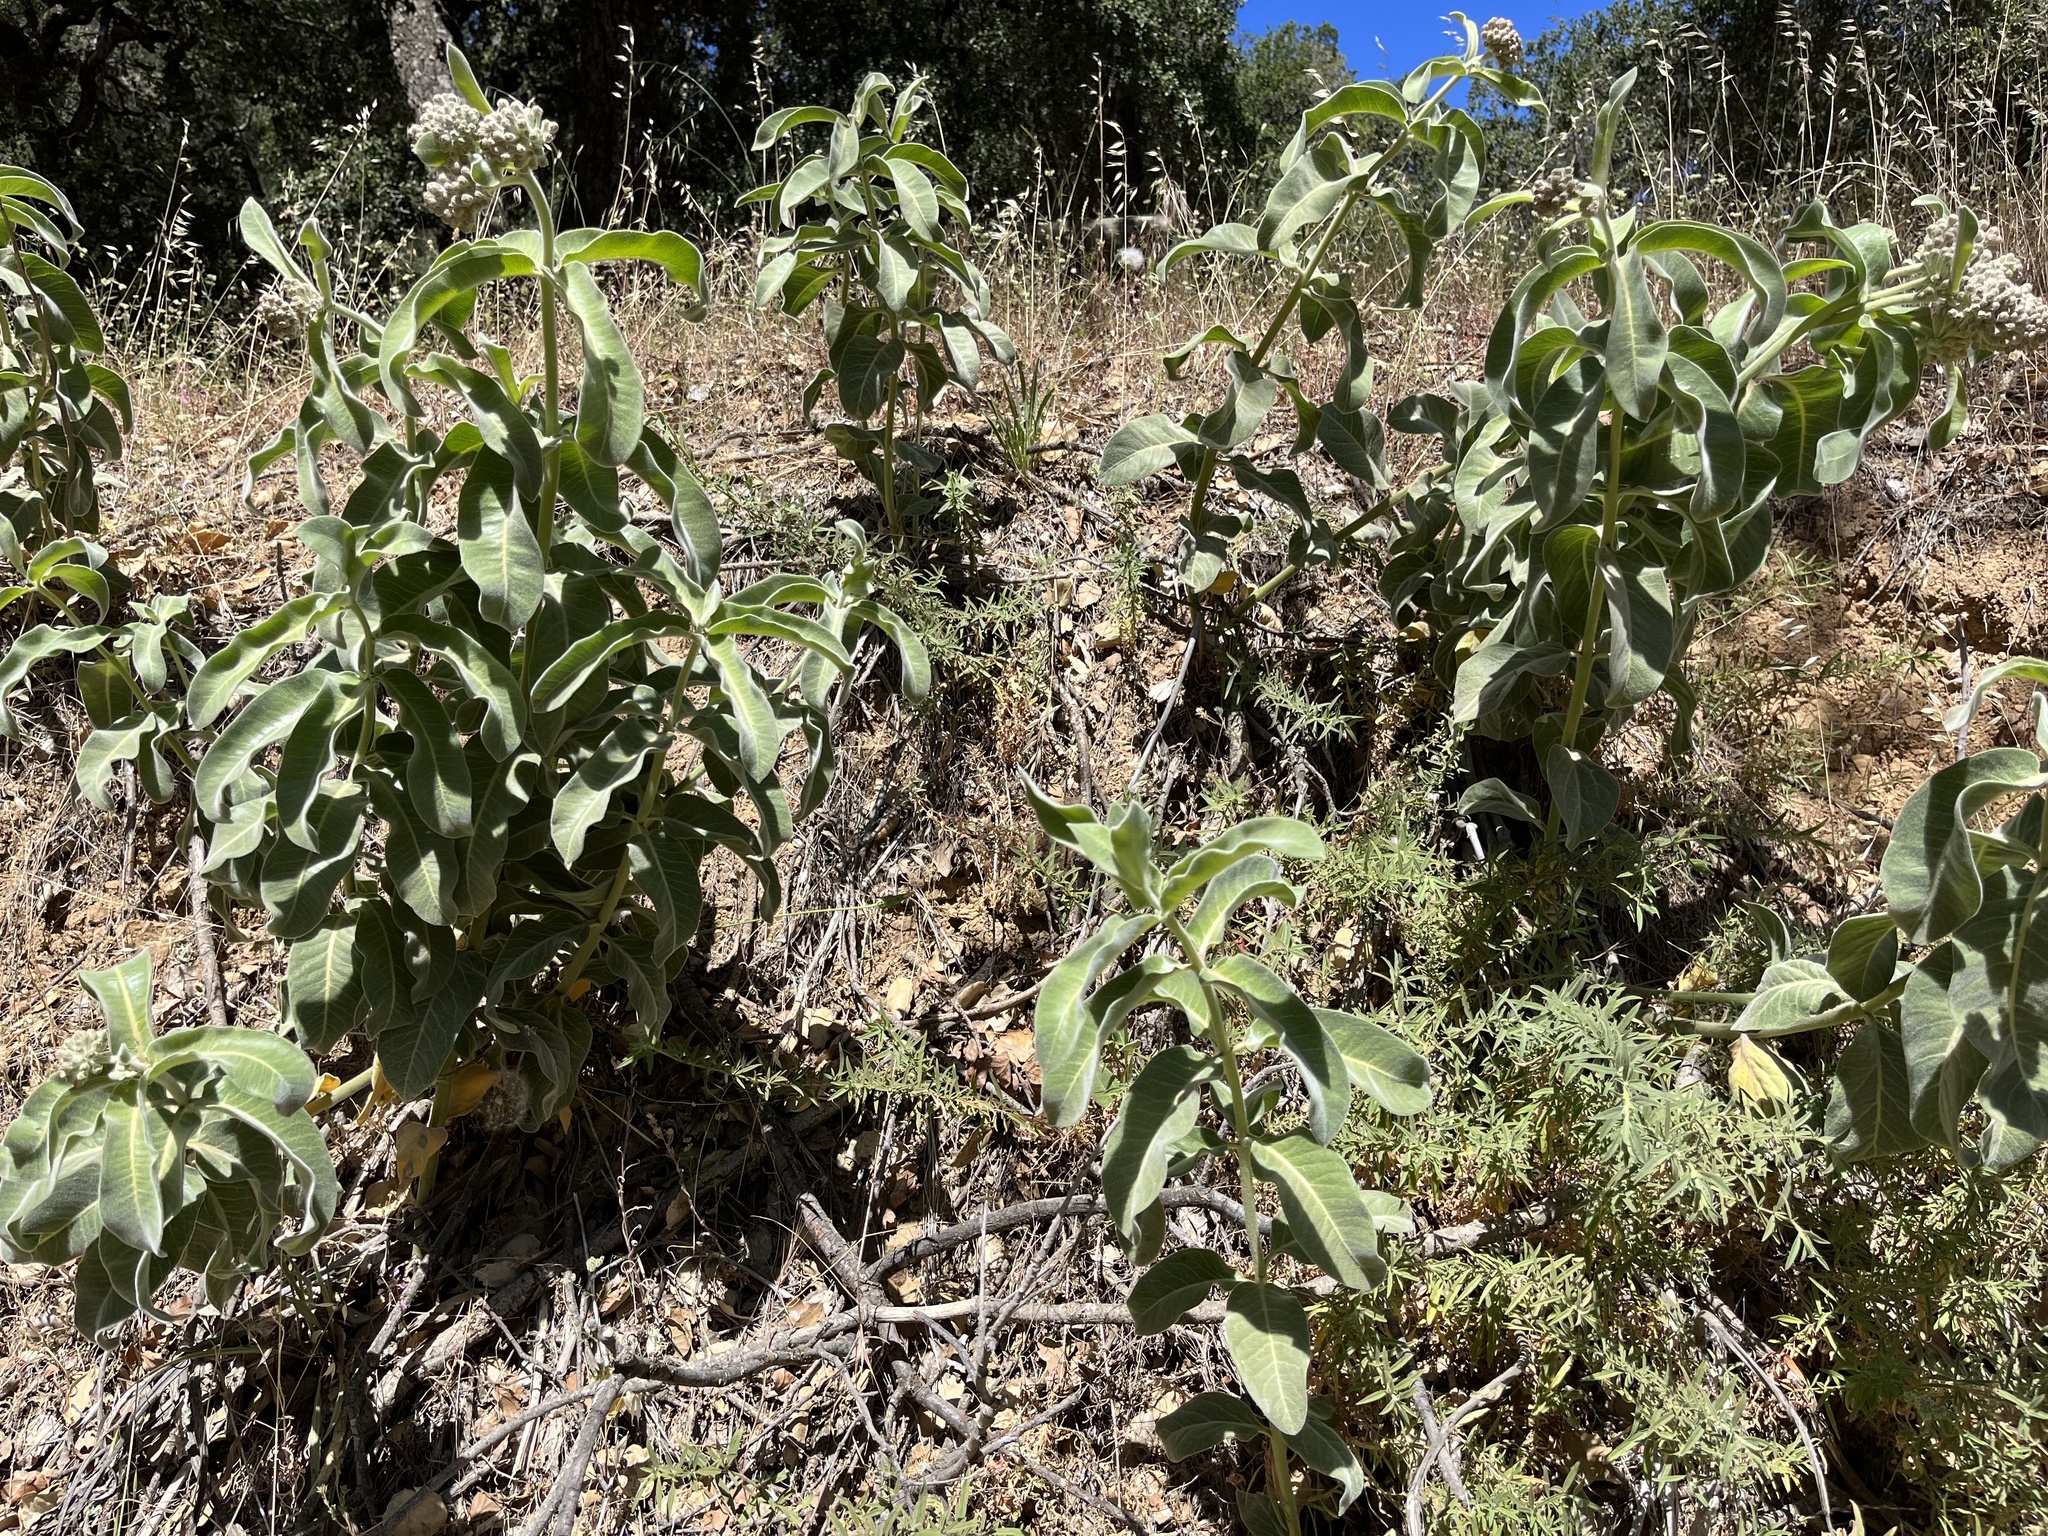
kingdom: Plantae
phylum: Tracheophyta
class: Magnoliopsida
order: Gentianales
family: Apocynaceae
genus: Asclepias
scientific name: Asclepias eriocarpa
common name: Indian milkweed
